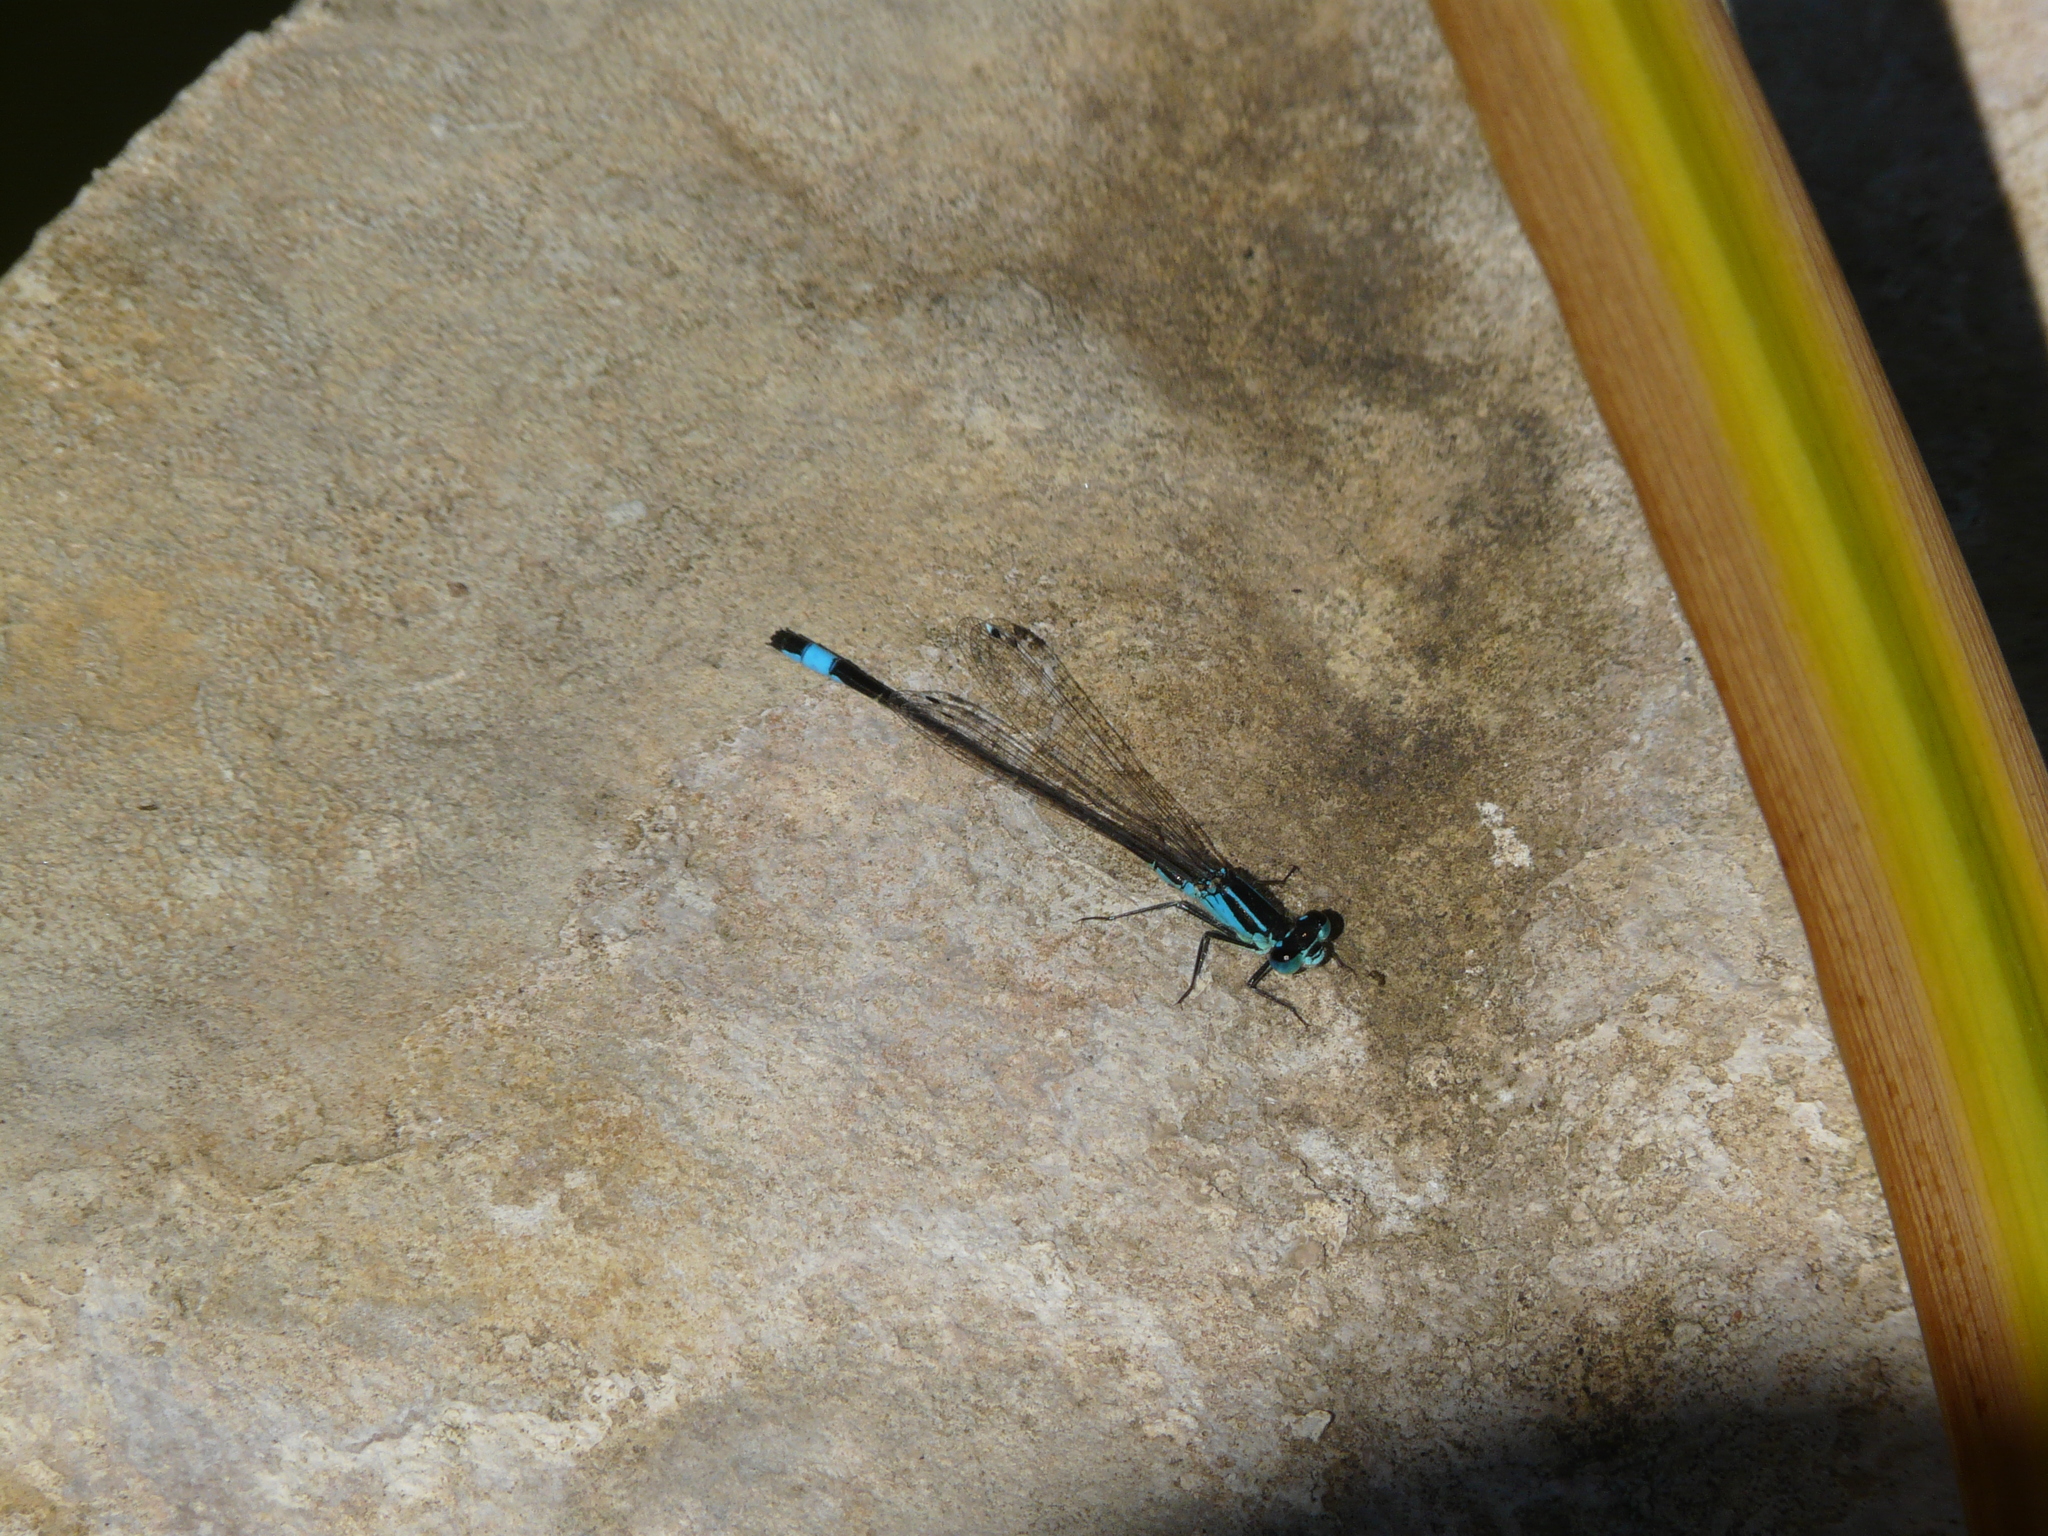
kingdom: Animalia
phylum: Arthropoda
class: Insecta
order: Odonata
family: Coenagrionidae
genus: Ischnura
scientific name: Ischnura elegans
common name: Blue-tailed damselfly
